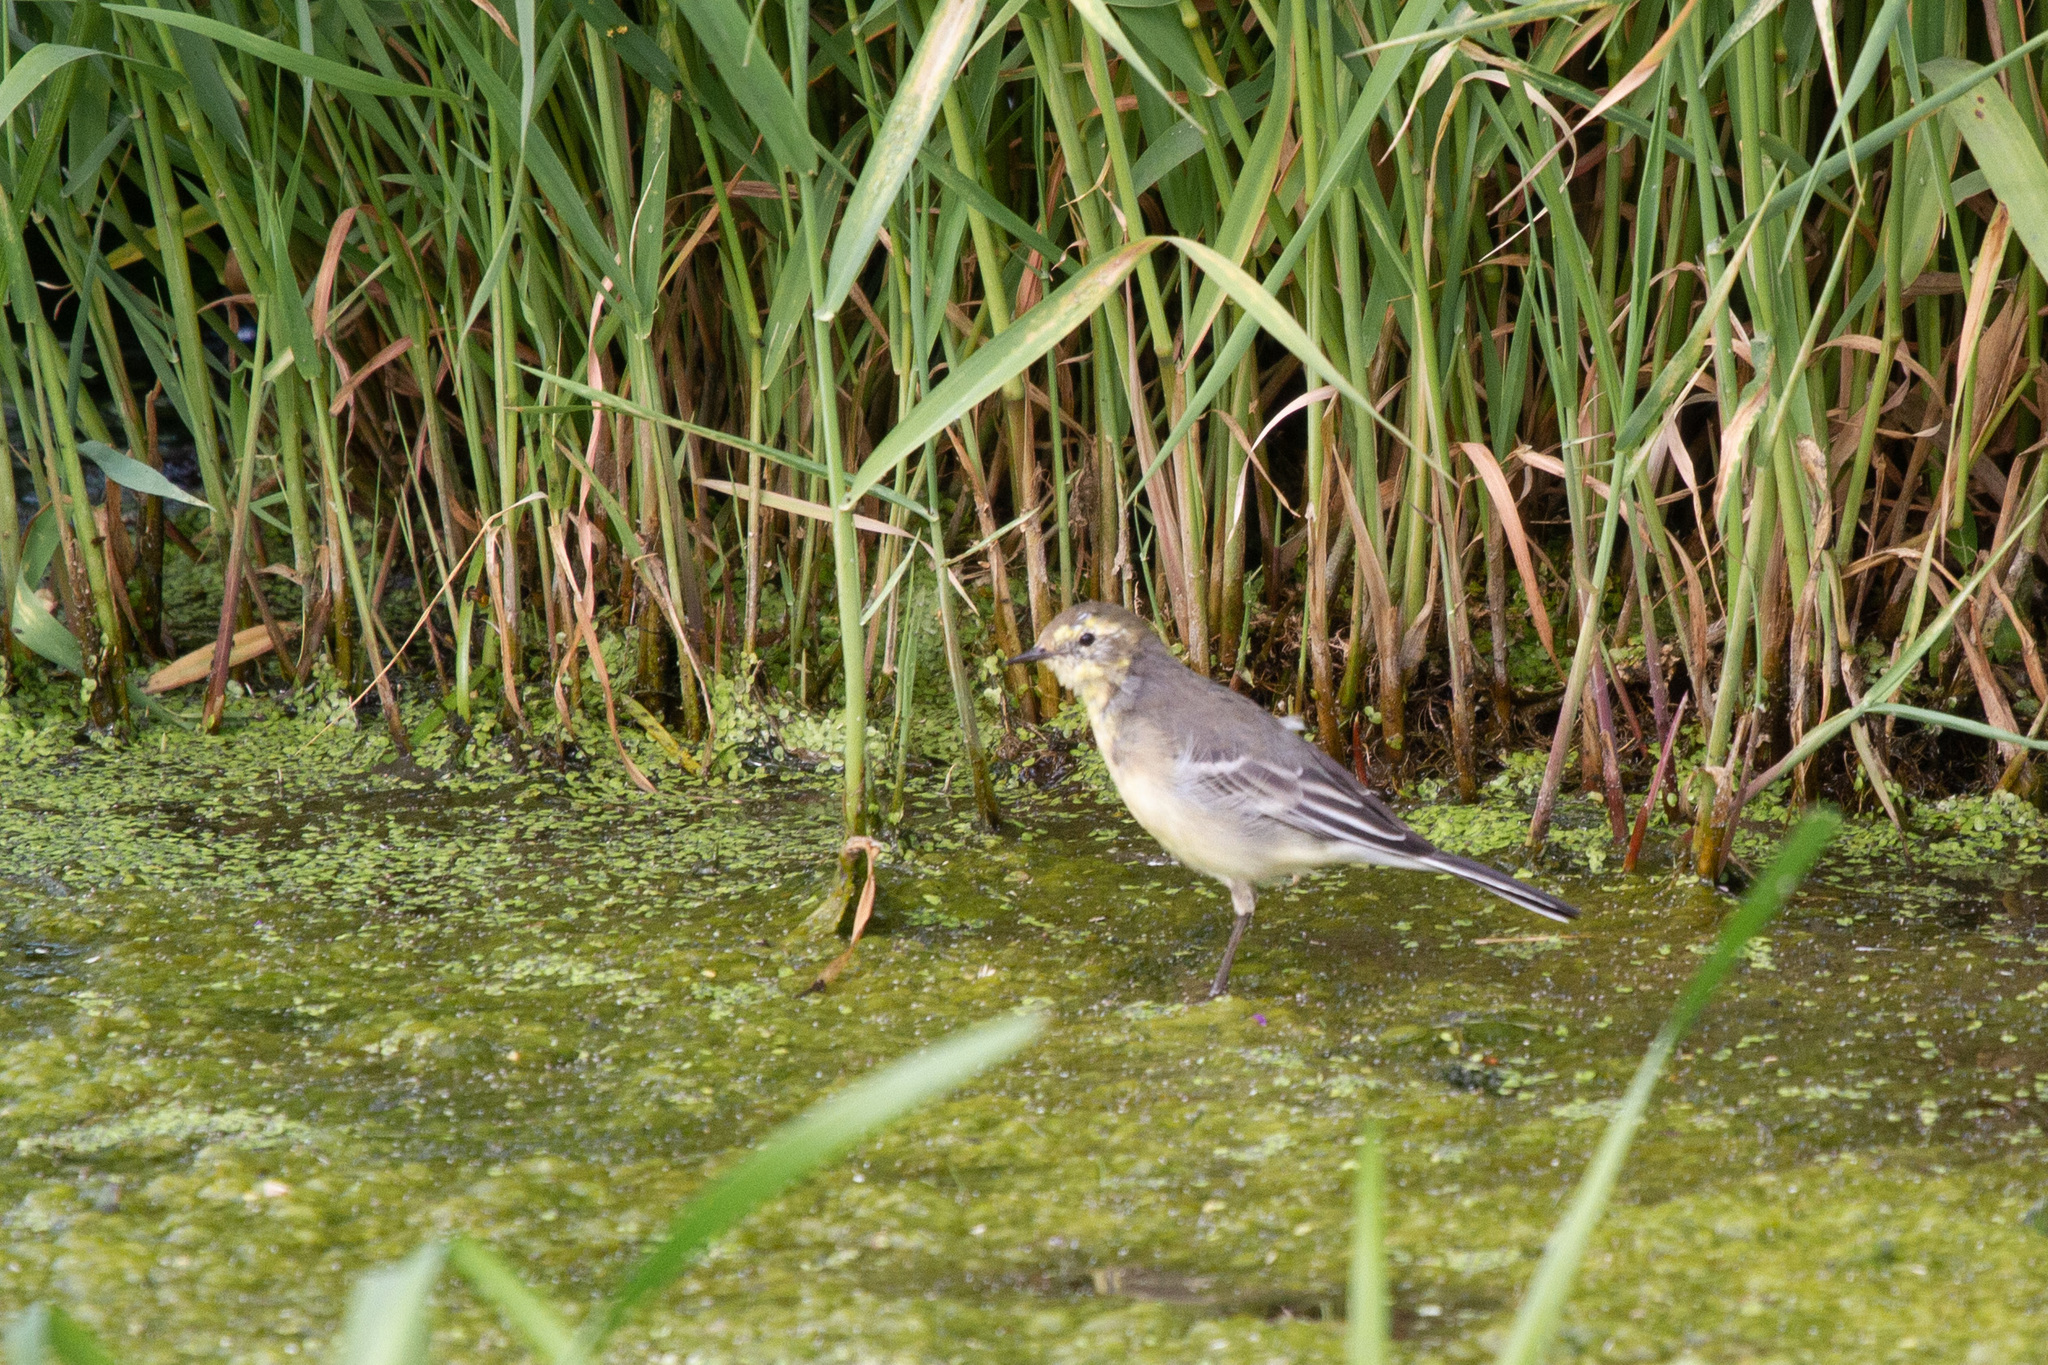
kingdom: Animalia
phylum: Chordata
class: Aves
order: Passeriformes
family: Motacillidae
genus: Motacilla
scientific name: Motacilla citreola
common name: Citrine wagtail
